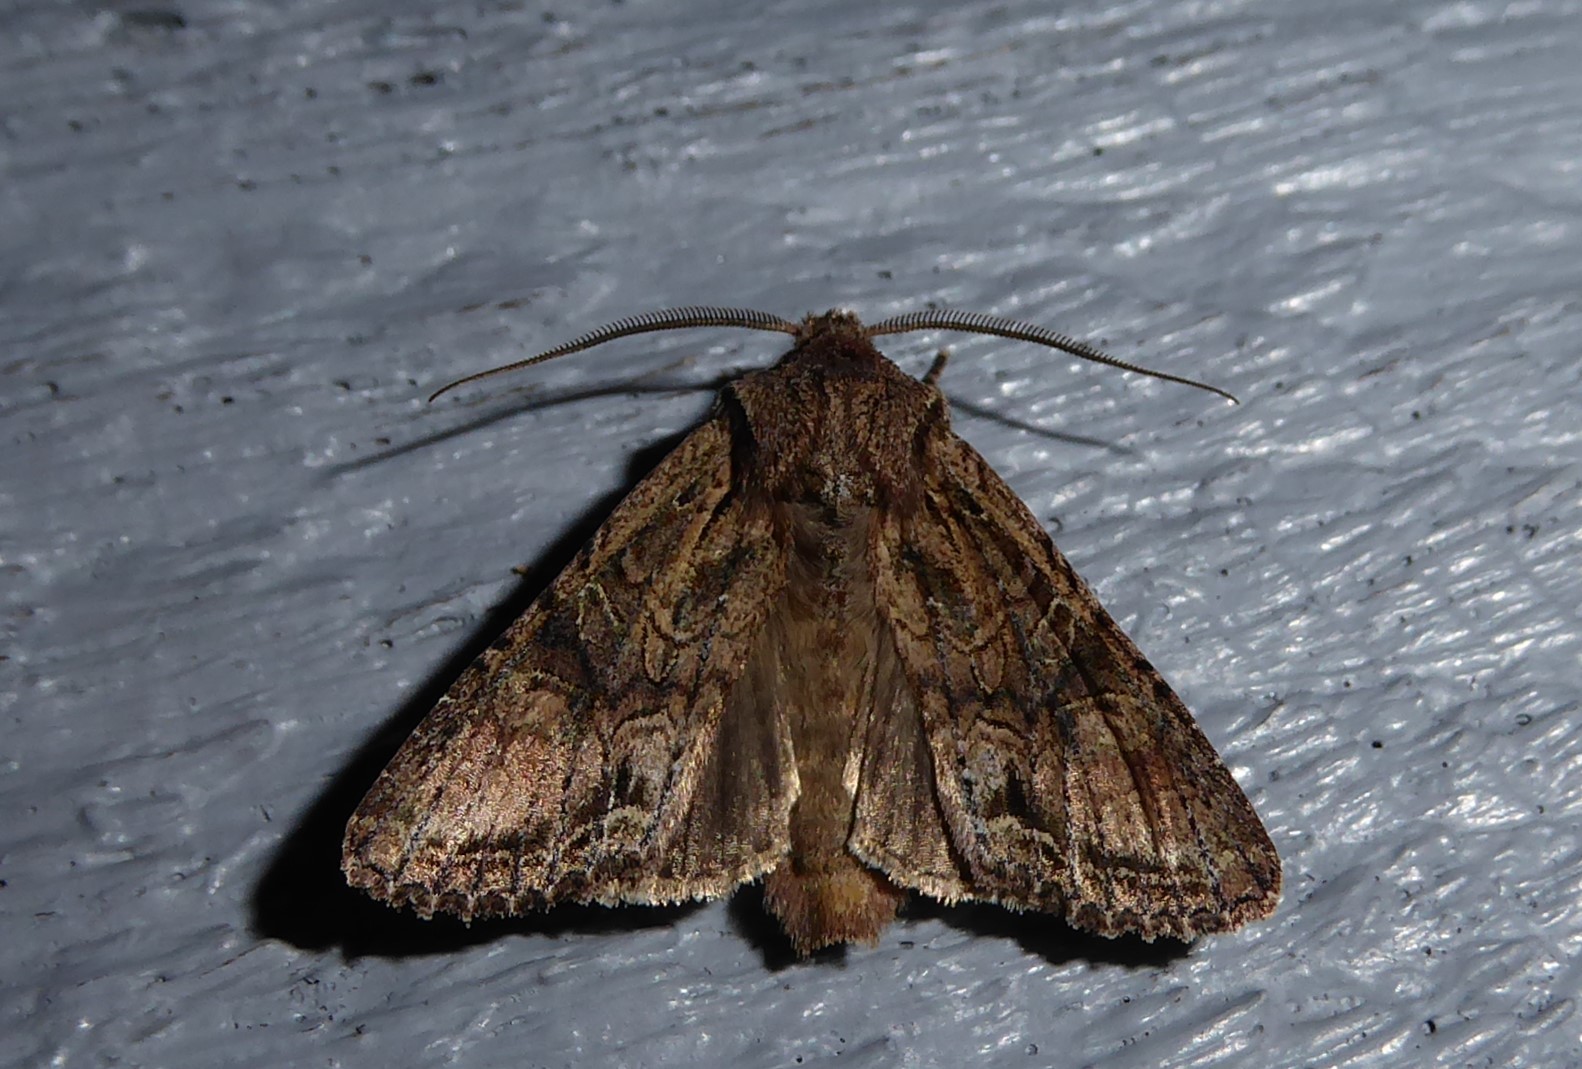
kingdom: Animalia
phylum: Arthropoda
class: Insecta
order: Lepidoptera
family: Noctuidae
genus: Ichneutica
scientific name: Ichneutica mutans
